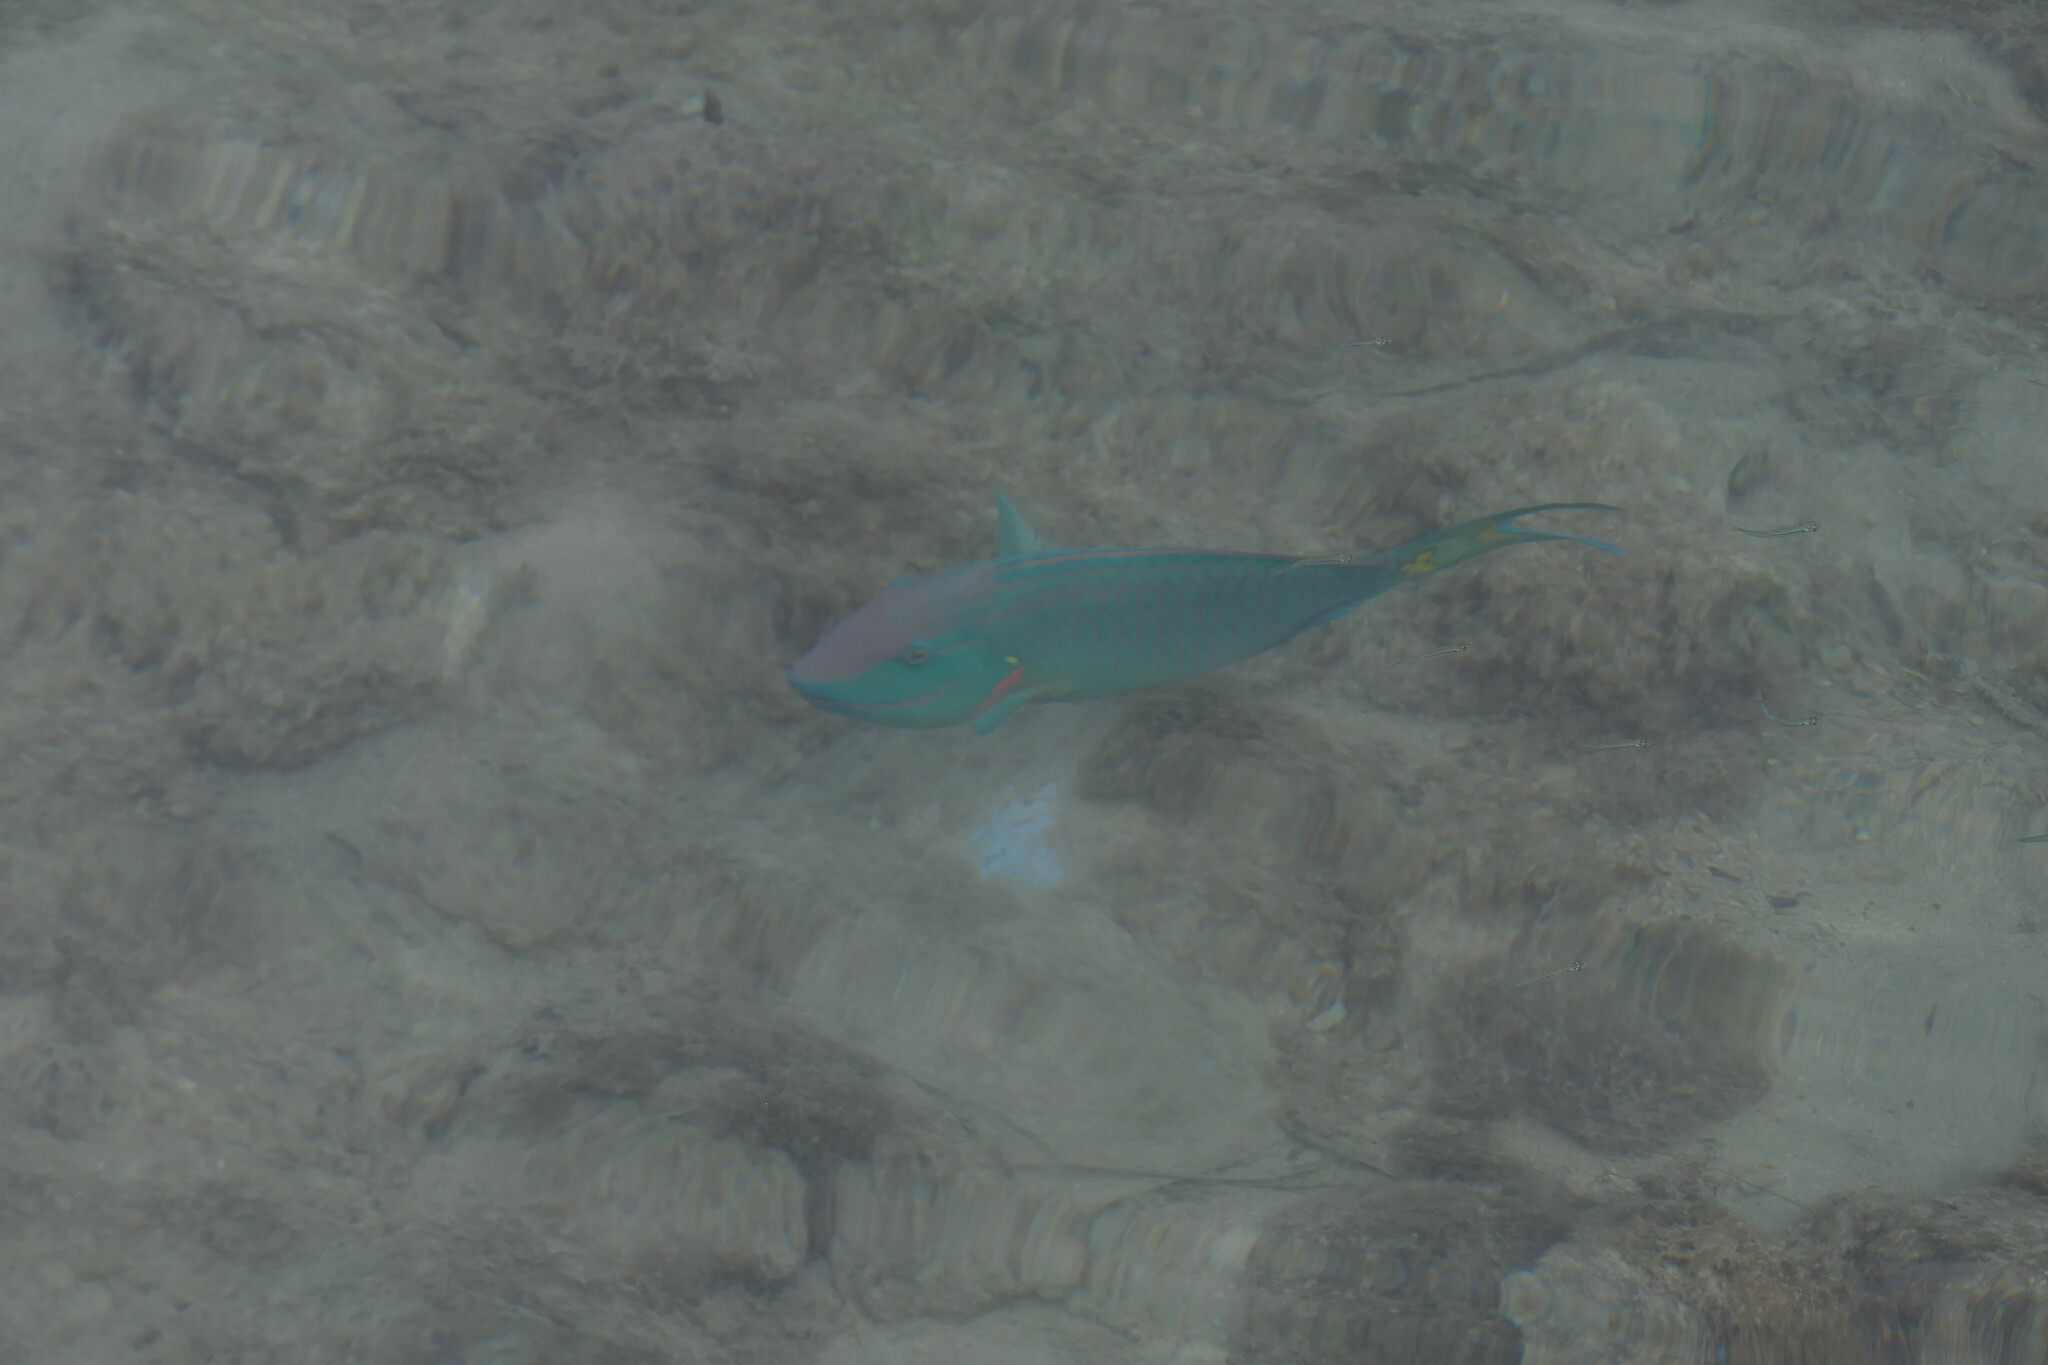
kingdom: Animalia
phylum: Chordata
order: Perciformes
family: Scaridae
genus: Sparisoma
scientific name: Sparisoma viride
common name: Stoplight parrotfish
